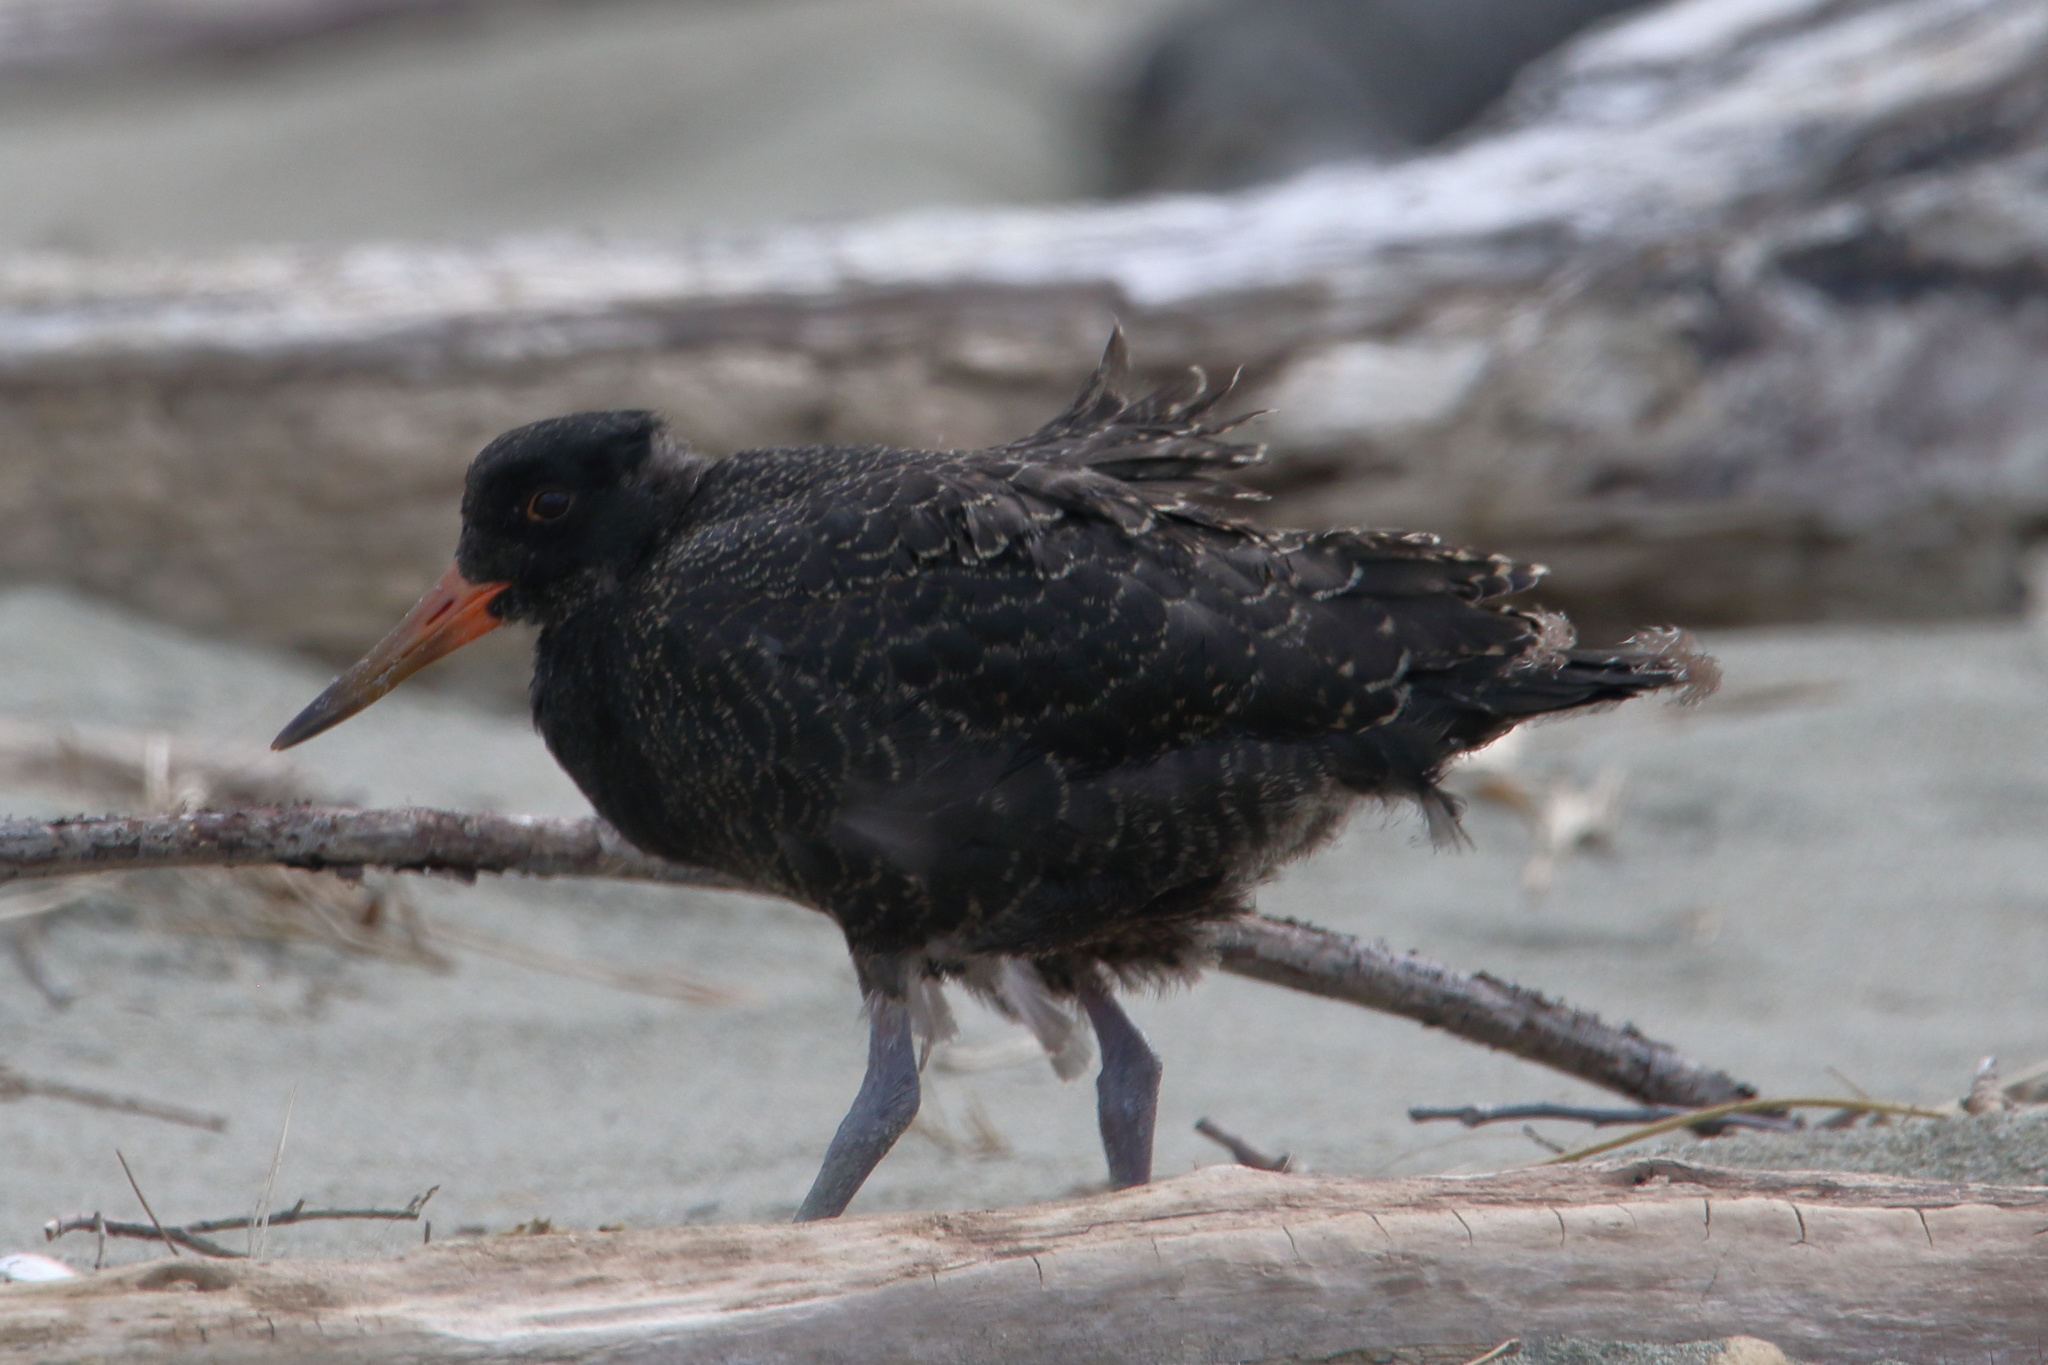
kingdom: Animalia
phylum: Chordata
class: Aves
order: Charadriiformes
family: Haematopodidae
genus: Haematopus
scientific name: Haematopus unicolor
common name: Variable oystercatcher
